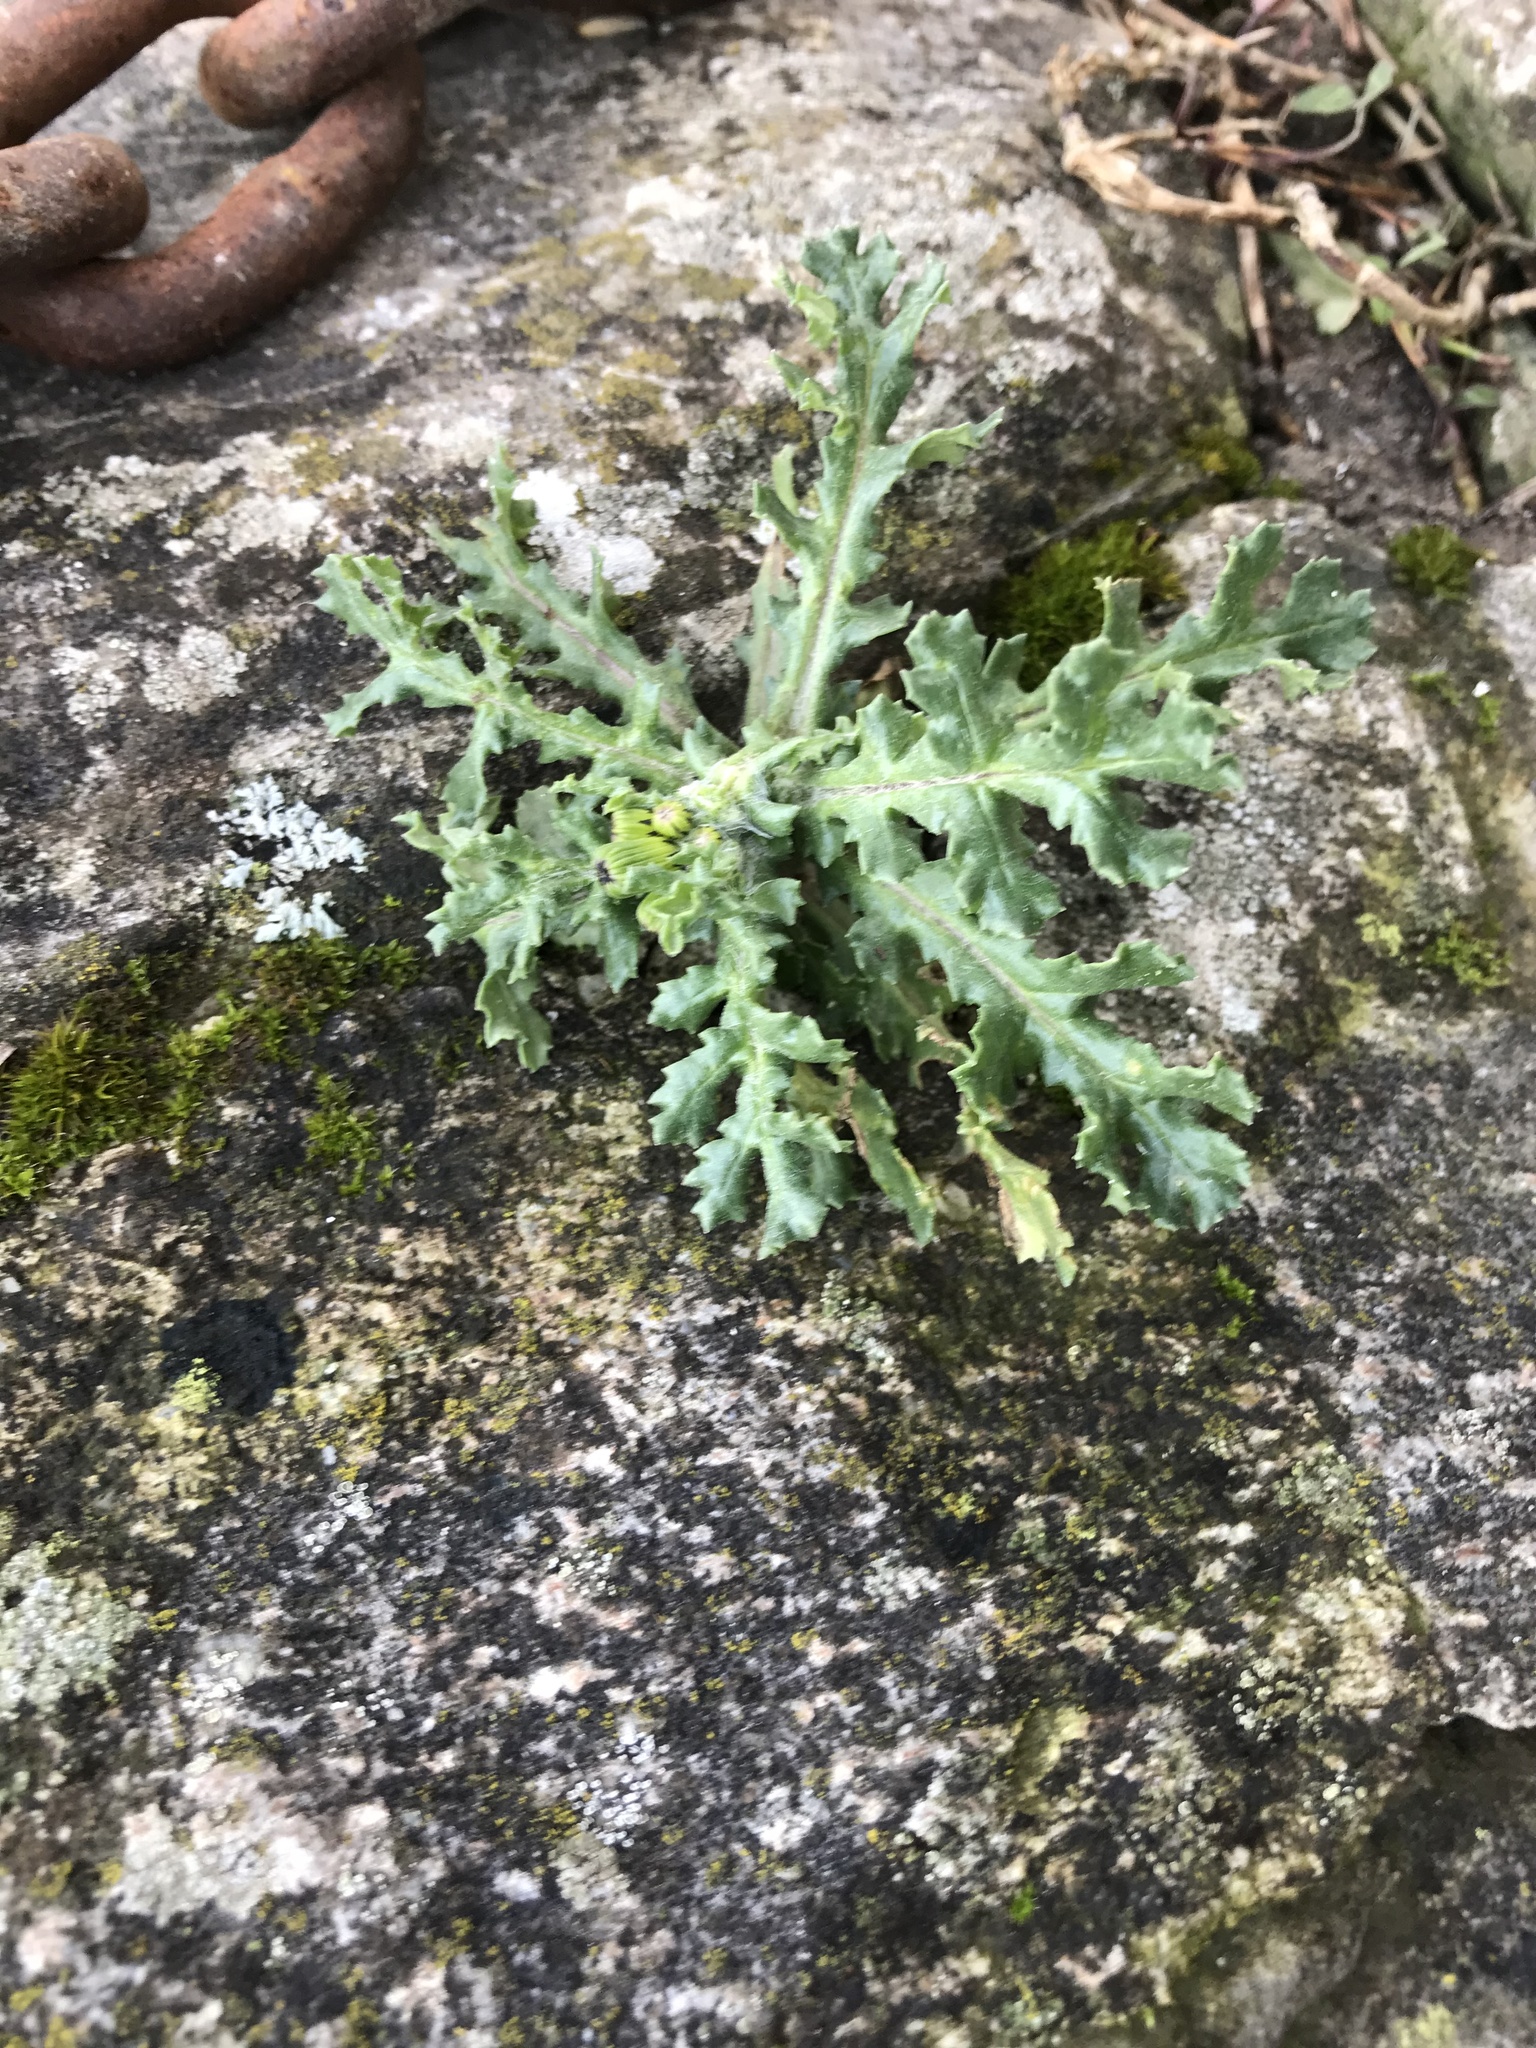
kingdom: Plantae
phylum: Tracheophyta
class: Magnoliopsida
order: Asterales
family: Asteraceae
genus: Senecio
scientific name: Senecio vulgaris
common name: Old-man-in-the-spring
